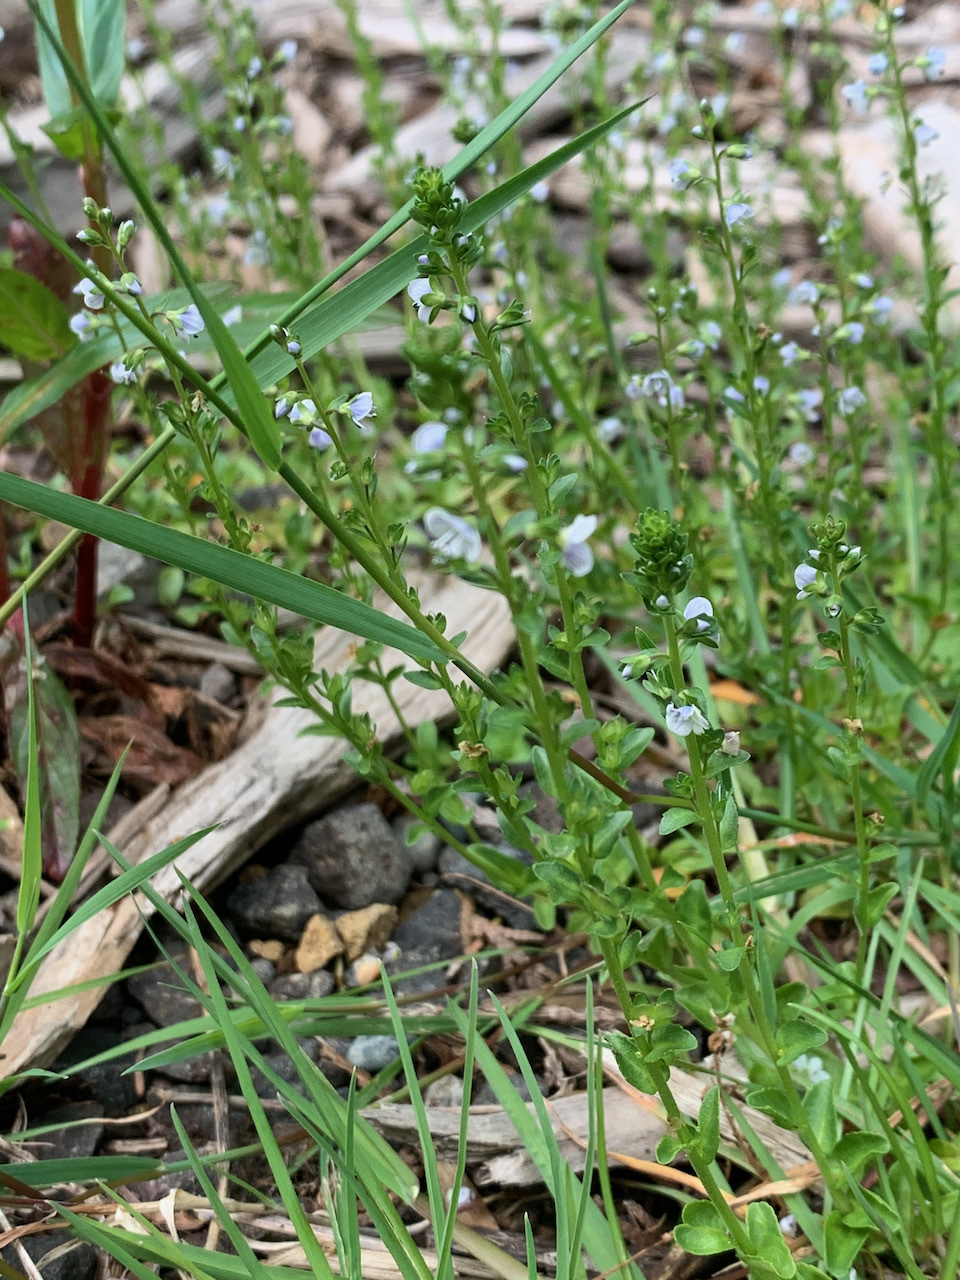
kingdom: Plantae
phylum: Tracheophyta
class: Magnoliopsida
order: Lamiales
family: Plantaginaceae
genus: Veronica
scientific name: Veronica serpyllifolia
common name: Thyme-leaved speedwell
